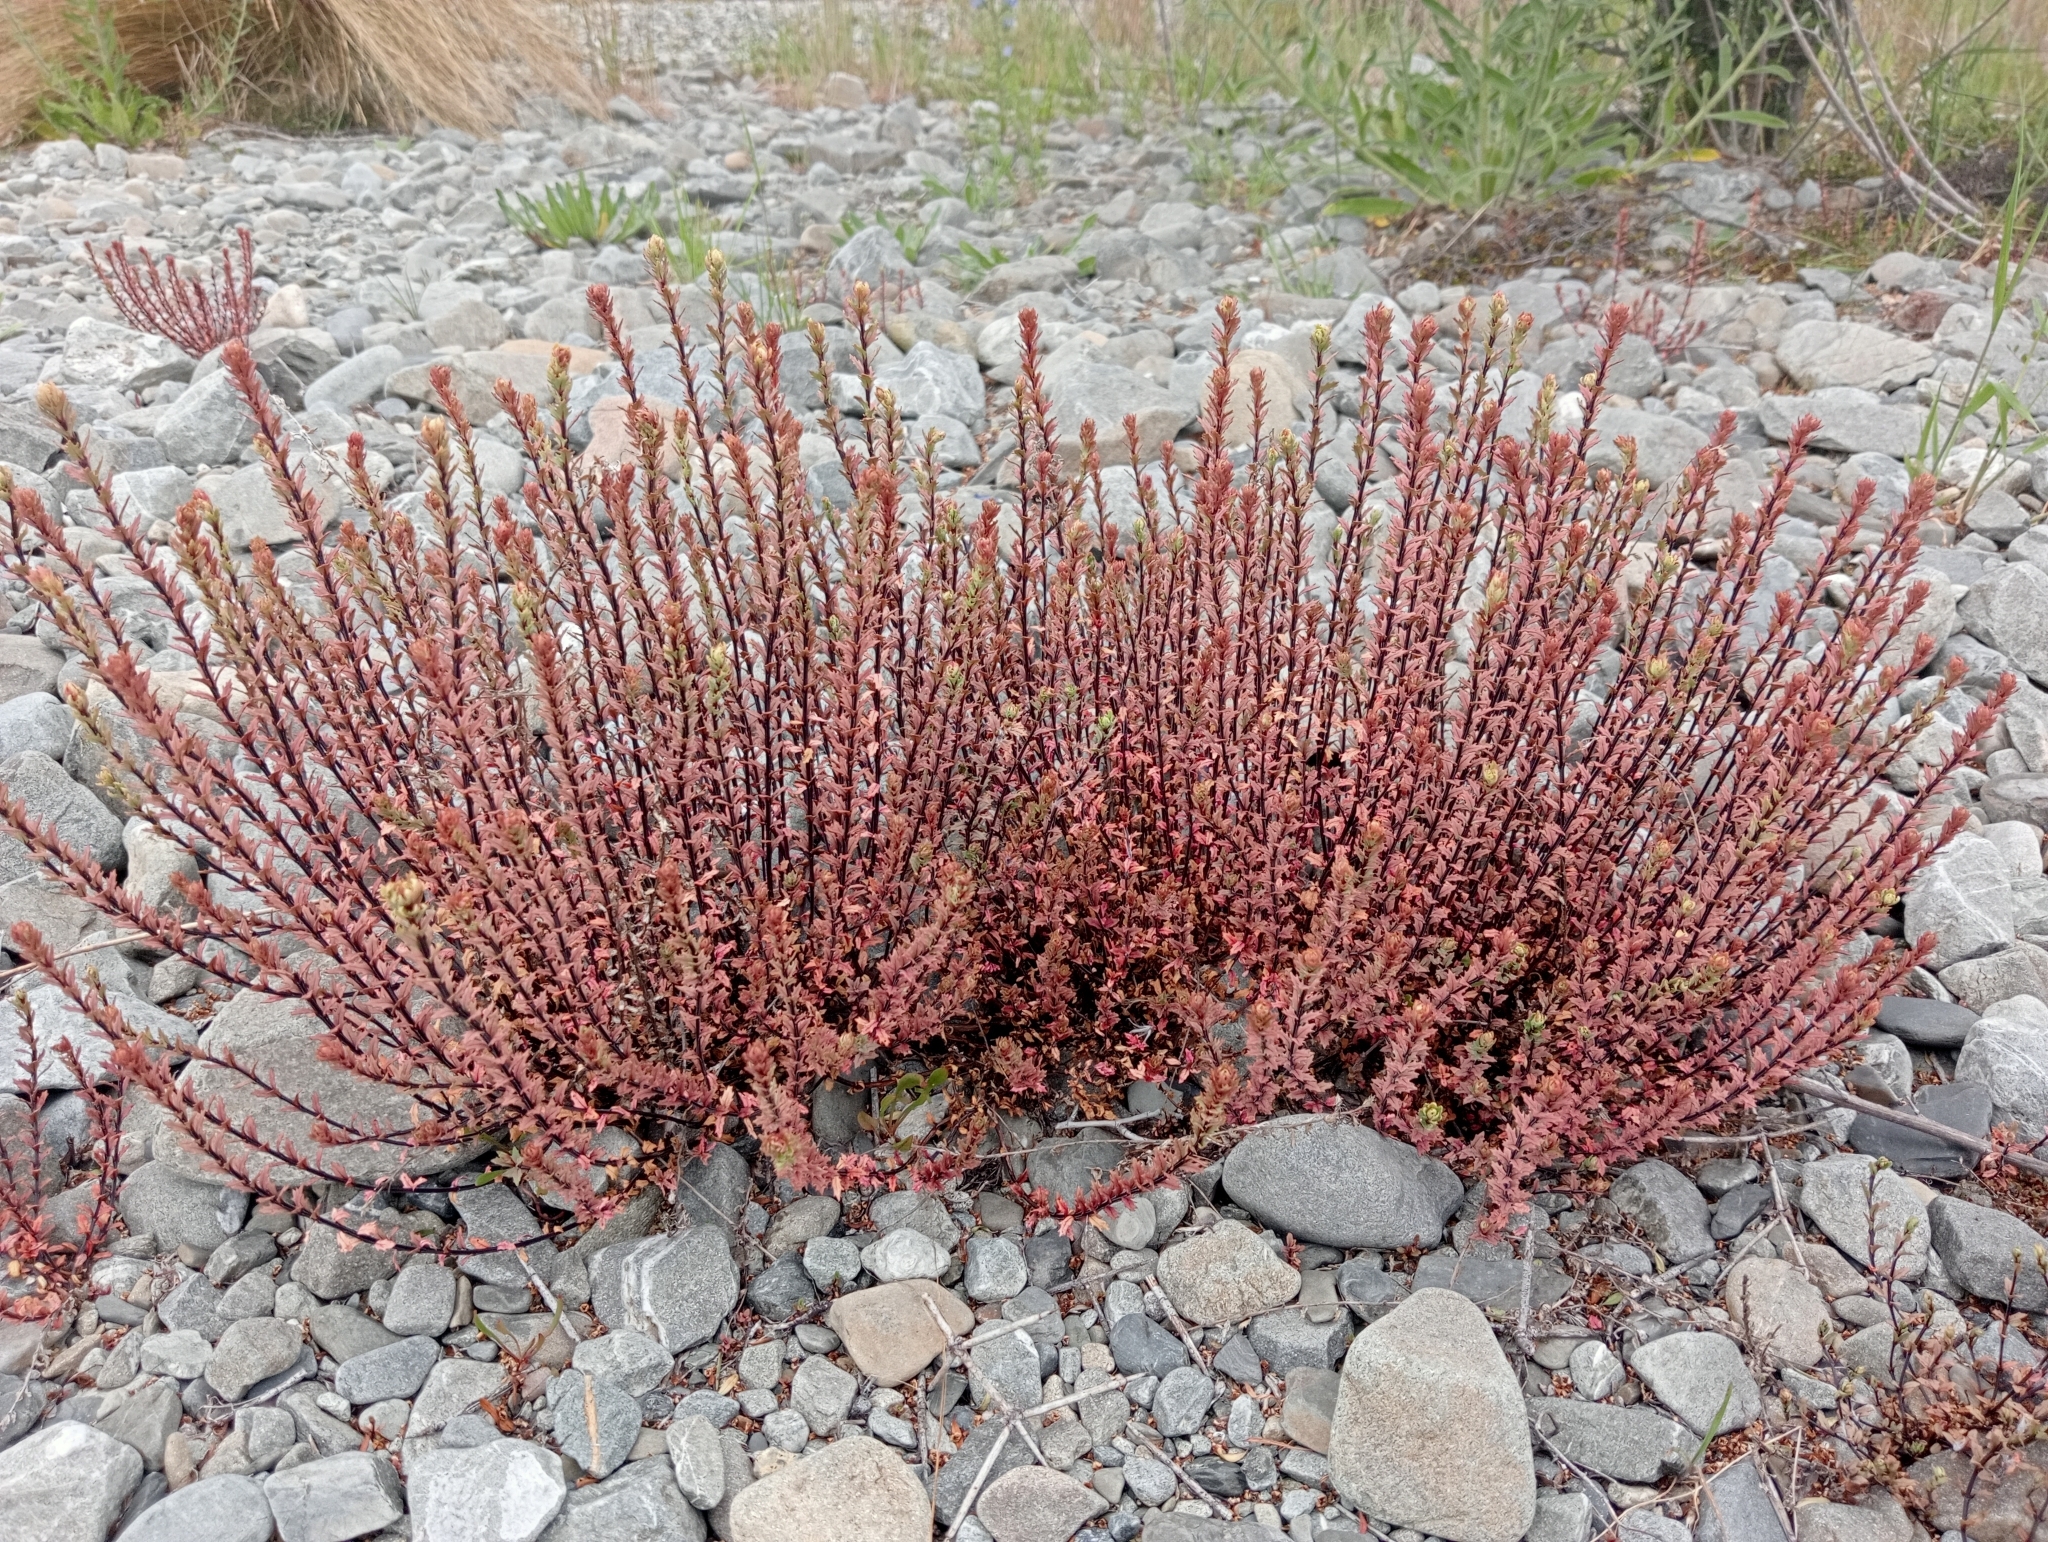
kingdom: Plantae
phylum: Tracheophyta
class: Magnoliopsida
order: Myrtales
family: Onagraceae
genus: Epilobium
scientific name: Epilobium melanocaulon
